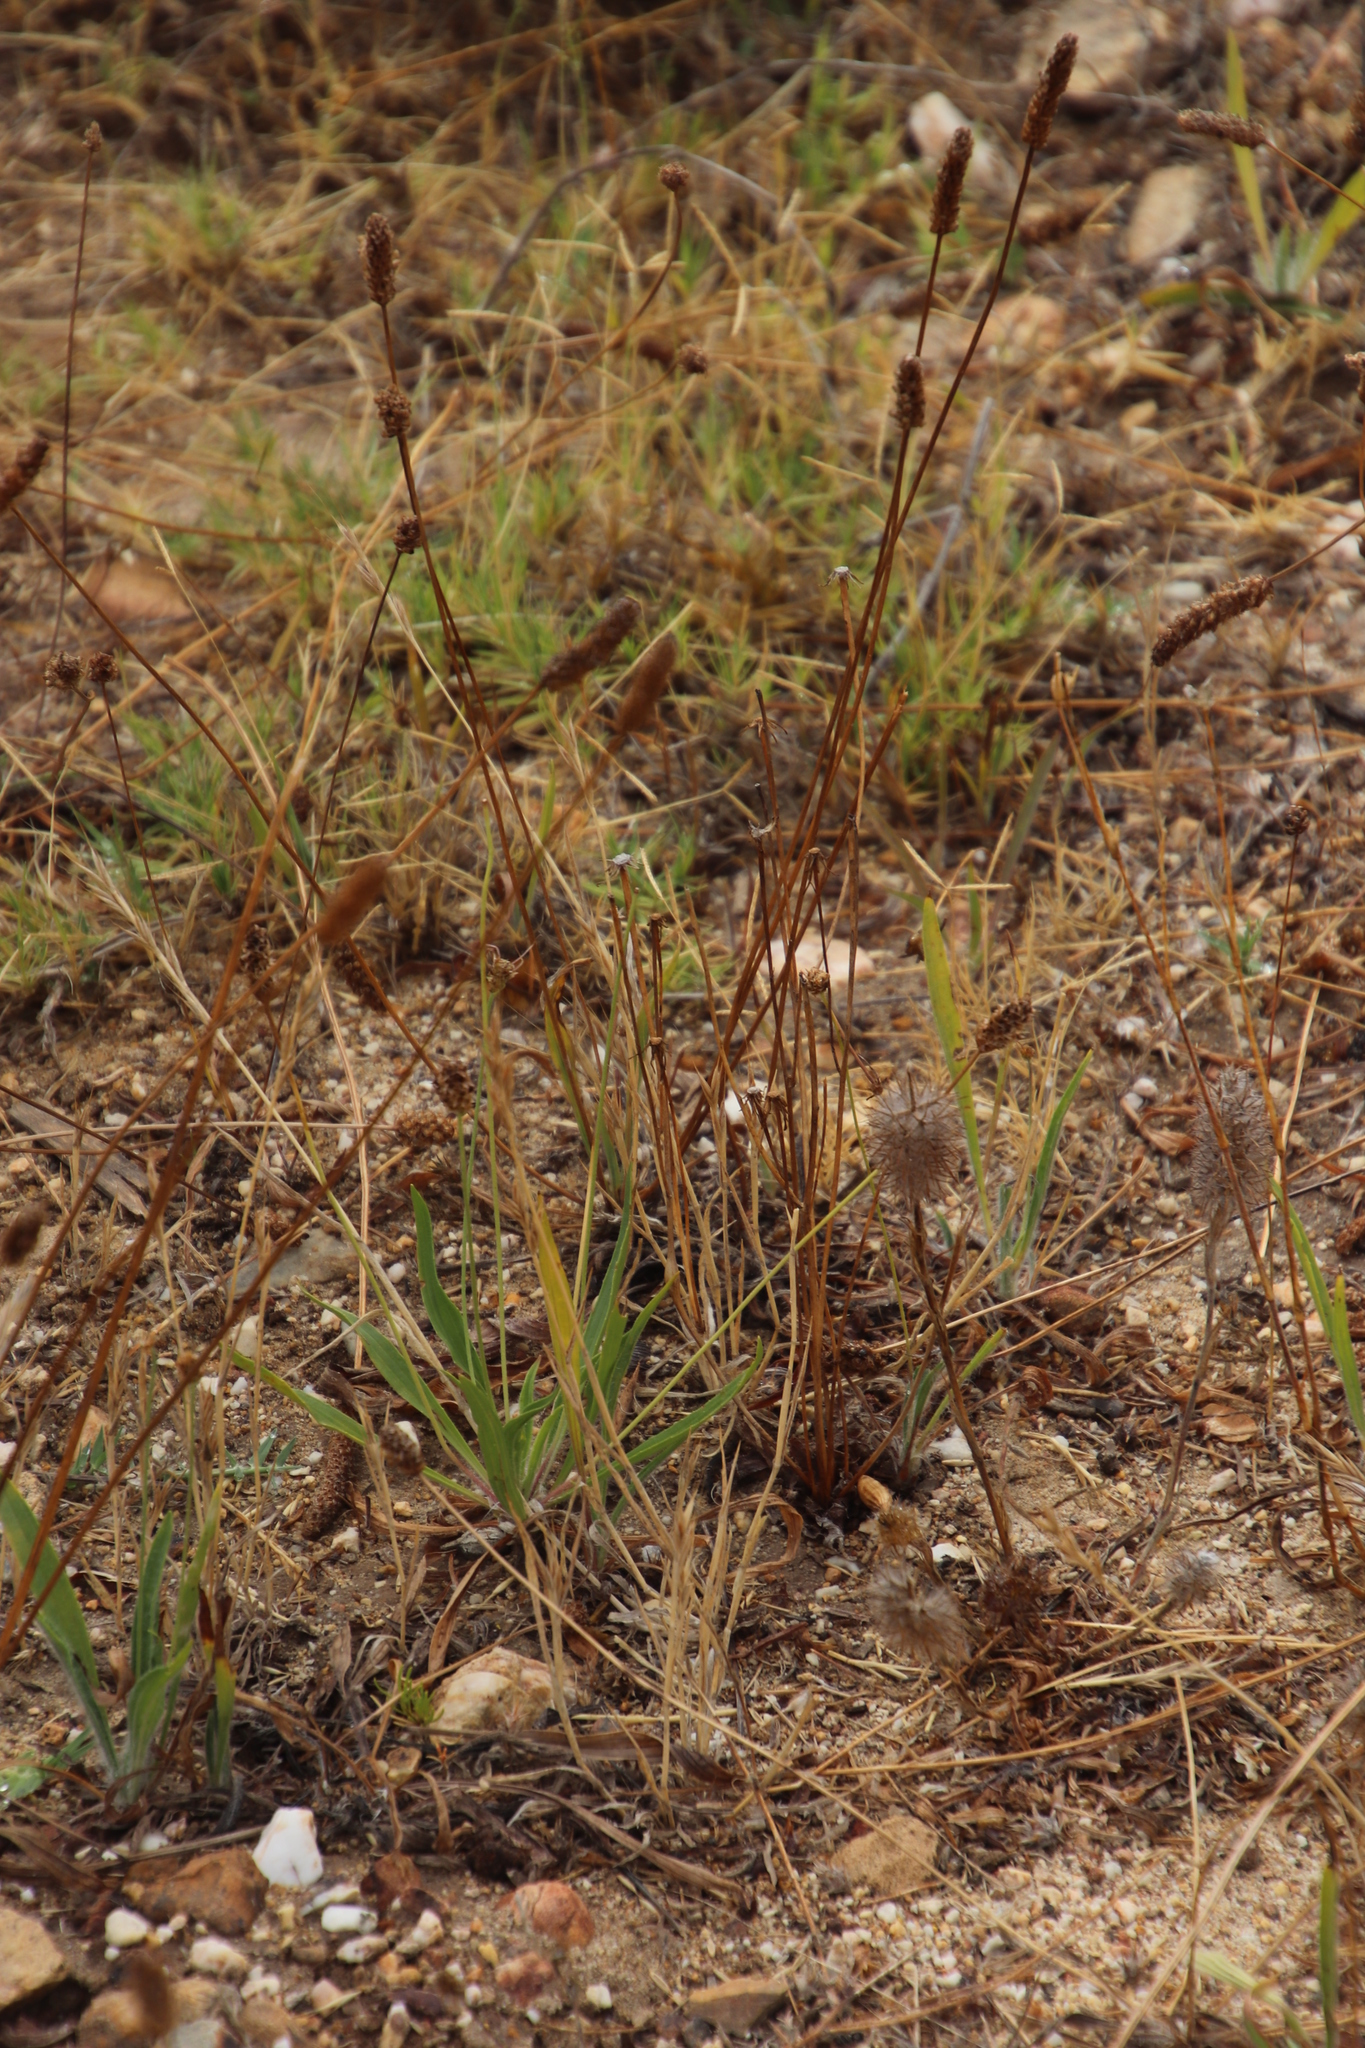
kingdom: Plantae
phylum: Tracheophyta
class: Magnoliopsida
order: Lamiales
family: Plantaginaceae
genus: Plantago
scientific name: Plantago lanceolata
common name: Ribwort plantain
